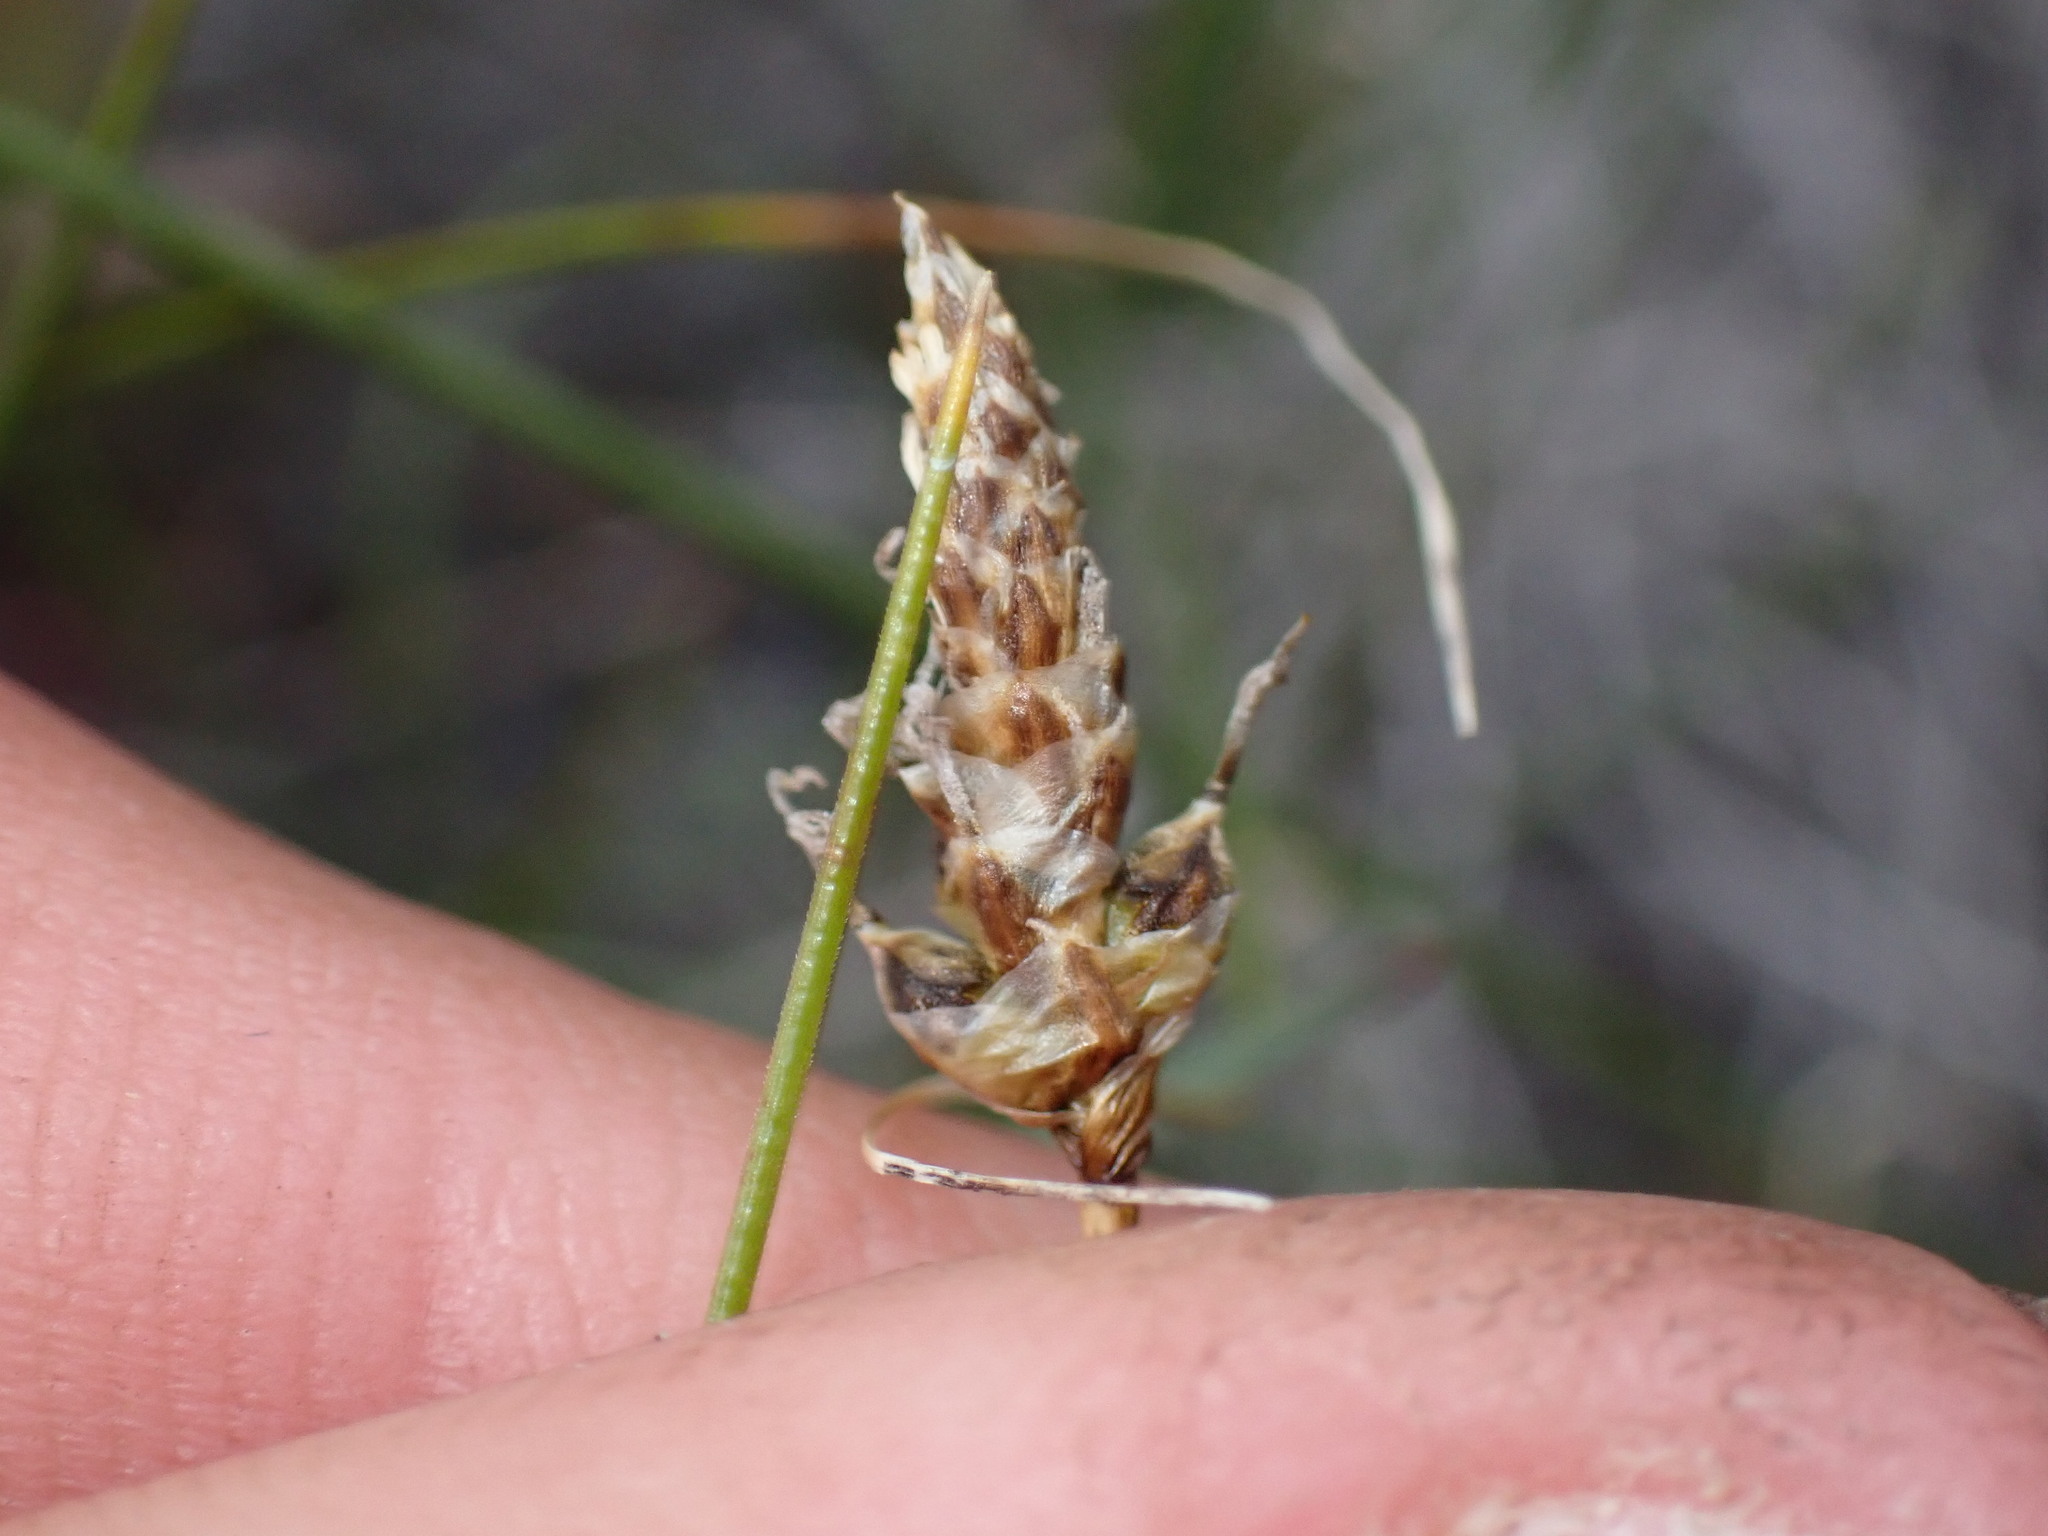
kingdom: Plantae
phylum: Tracheophyta
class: Liliopsida
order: Poales
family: Cyperaceae
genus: Carex
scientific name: Carex filifolia
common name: Threadleaf sedge
